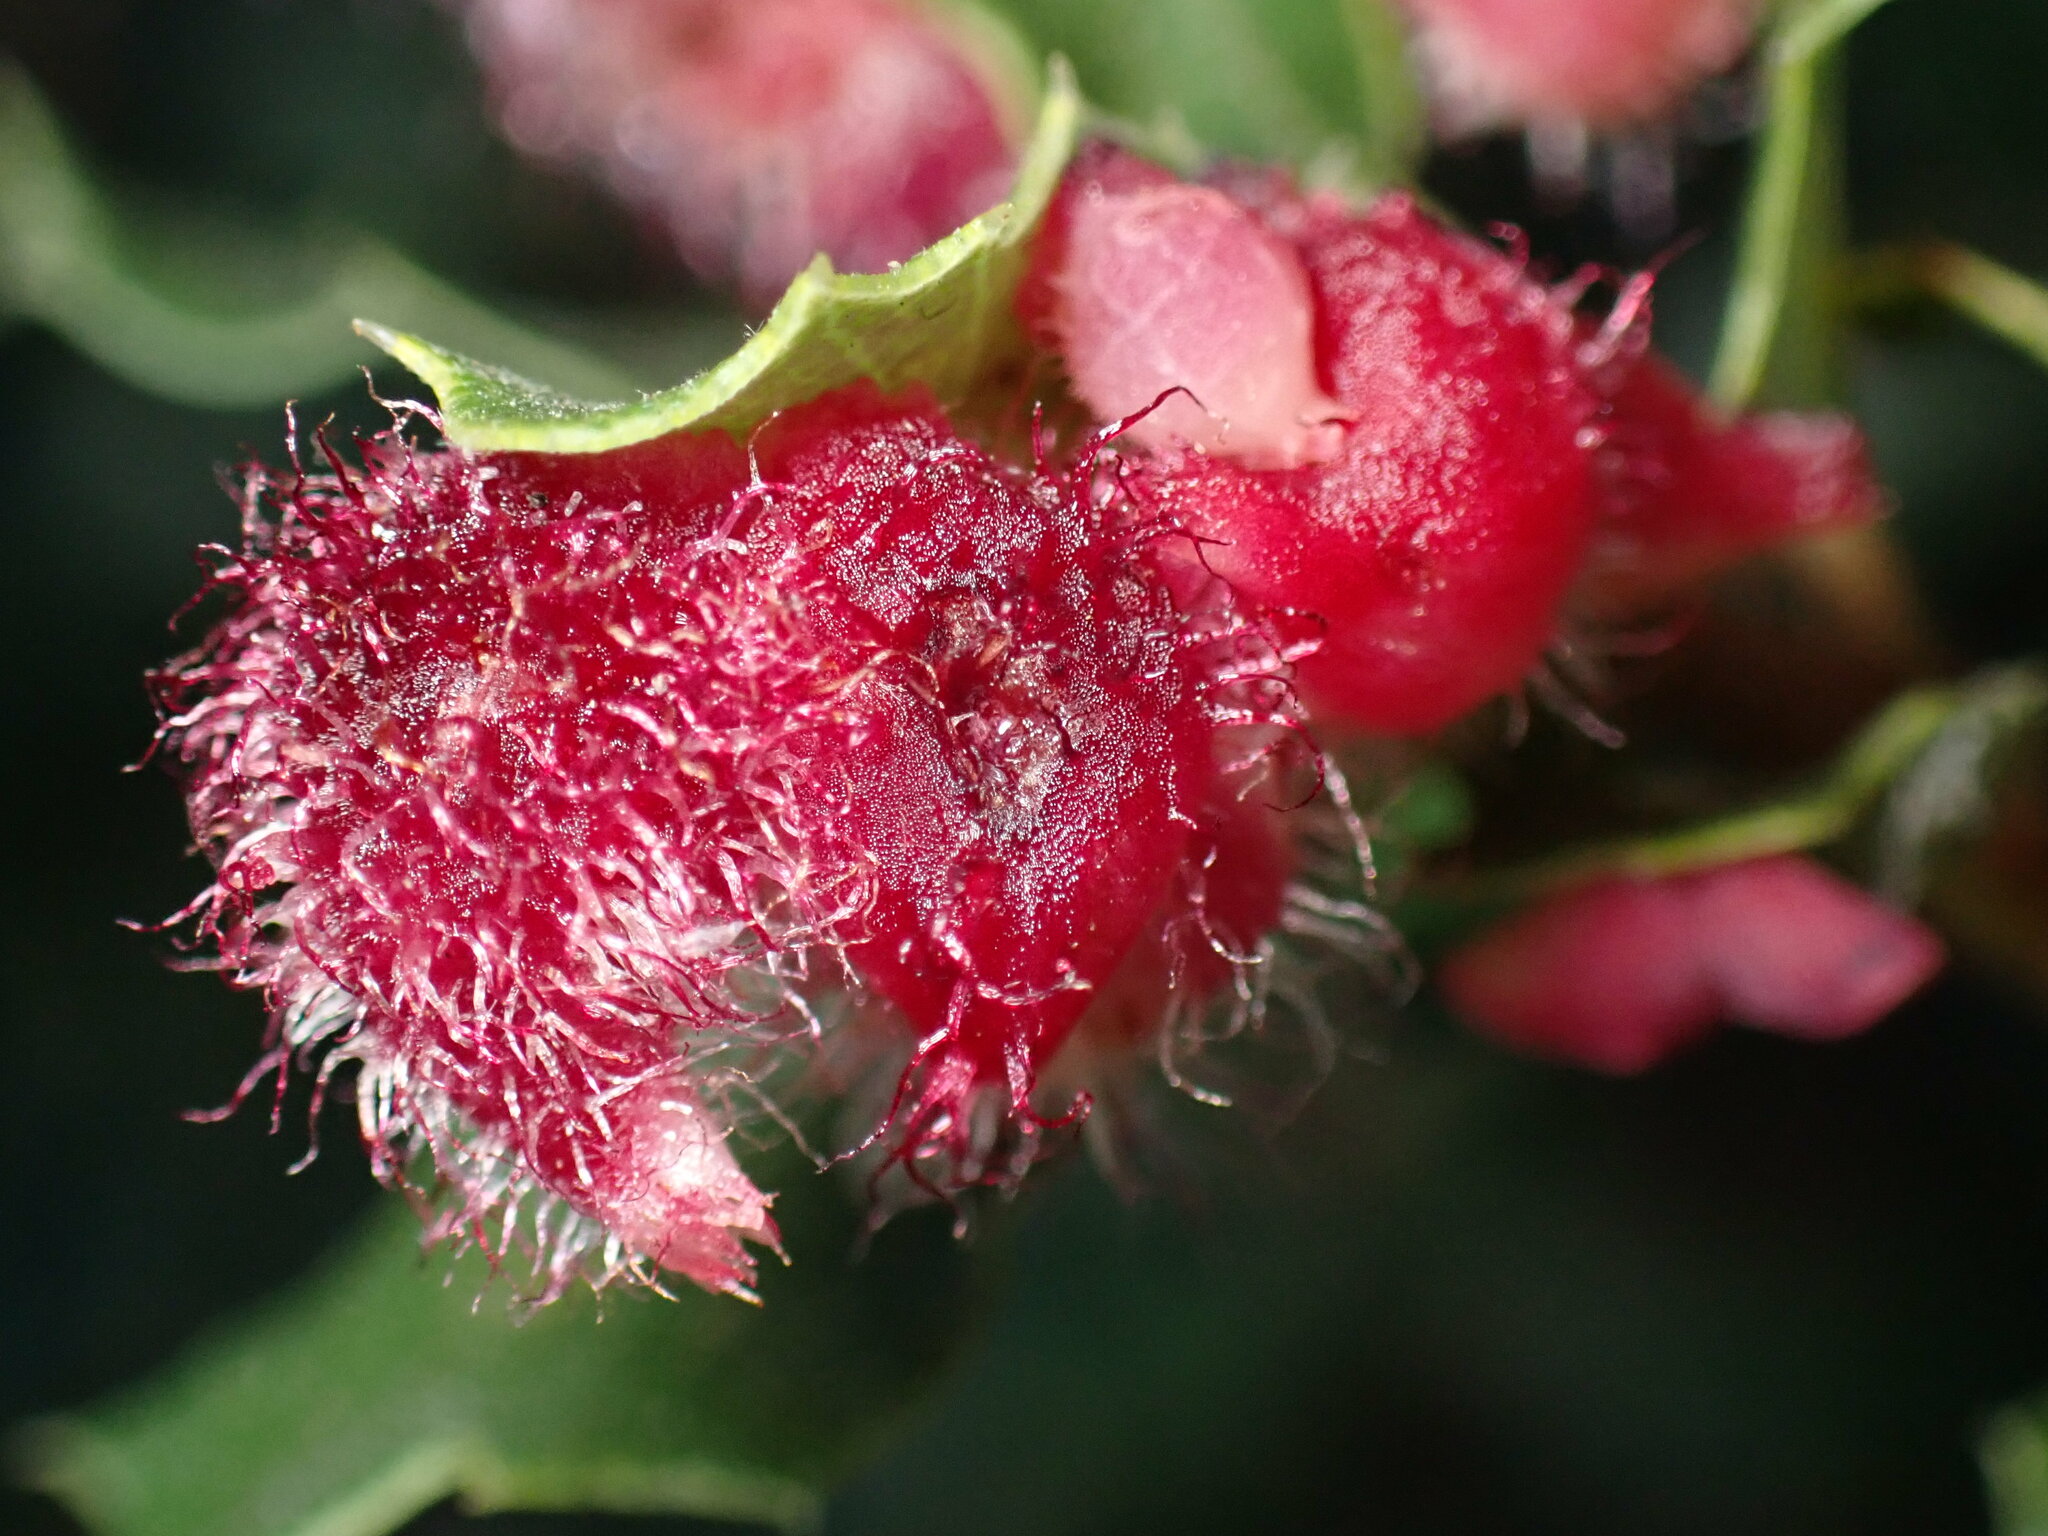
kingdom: Animalia
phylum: Arthropoda
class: Insecta
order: Hymenoptera
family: Cynipidae
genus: Andricus
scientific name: Andricus
